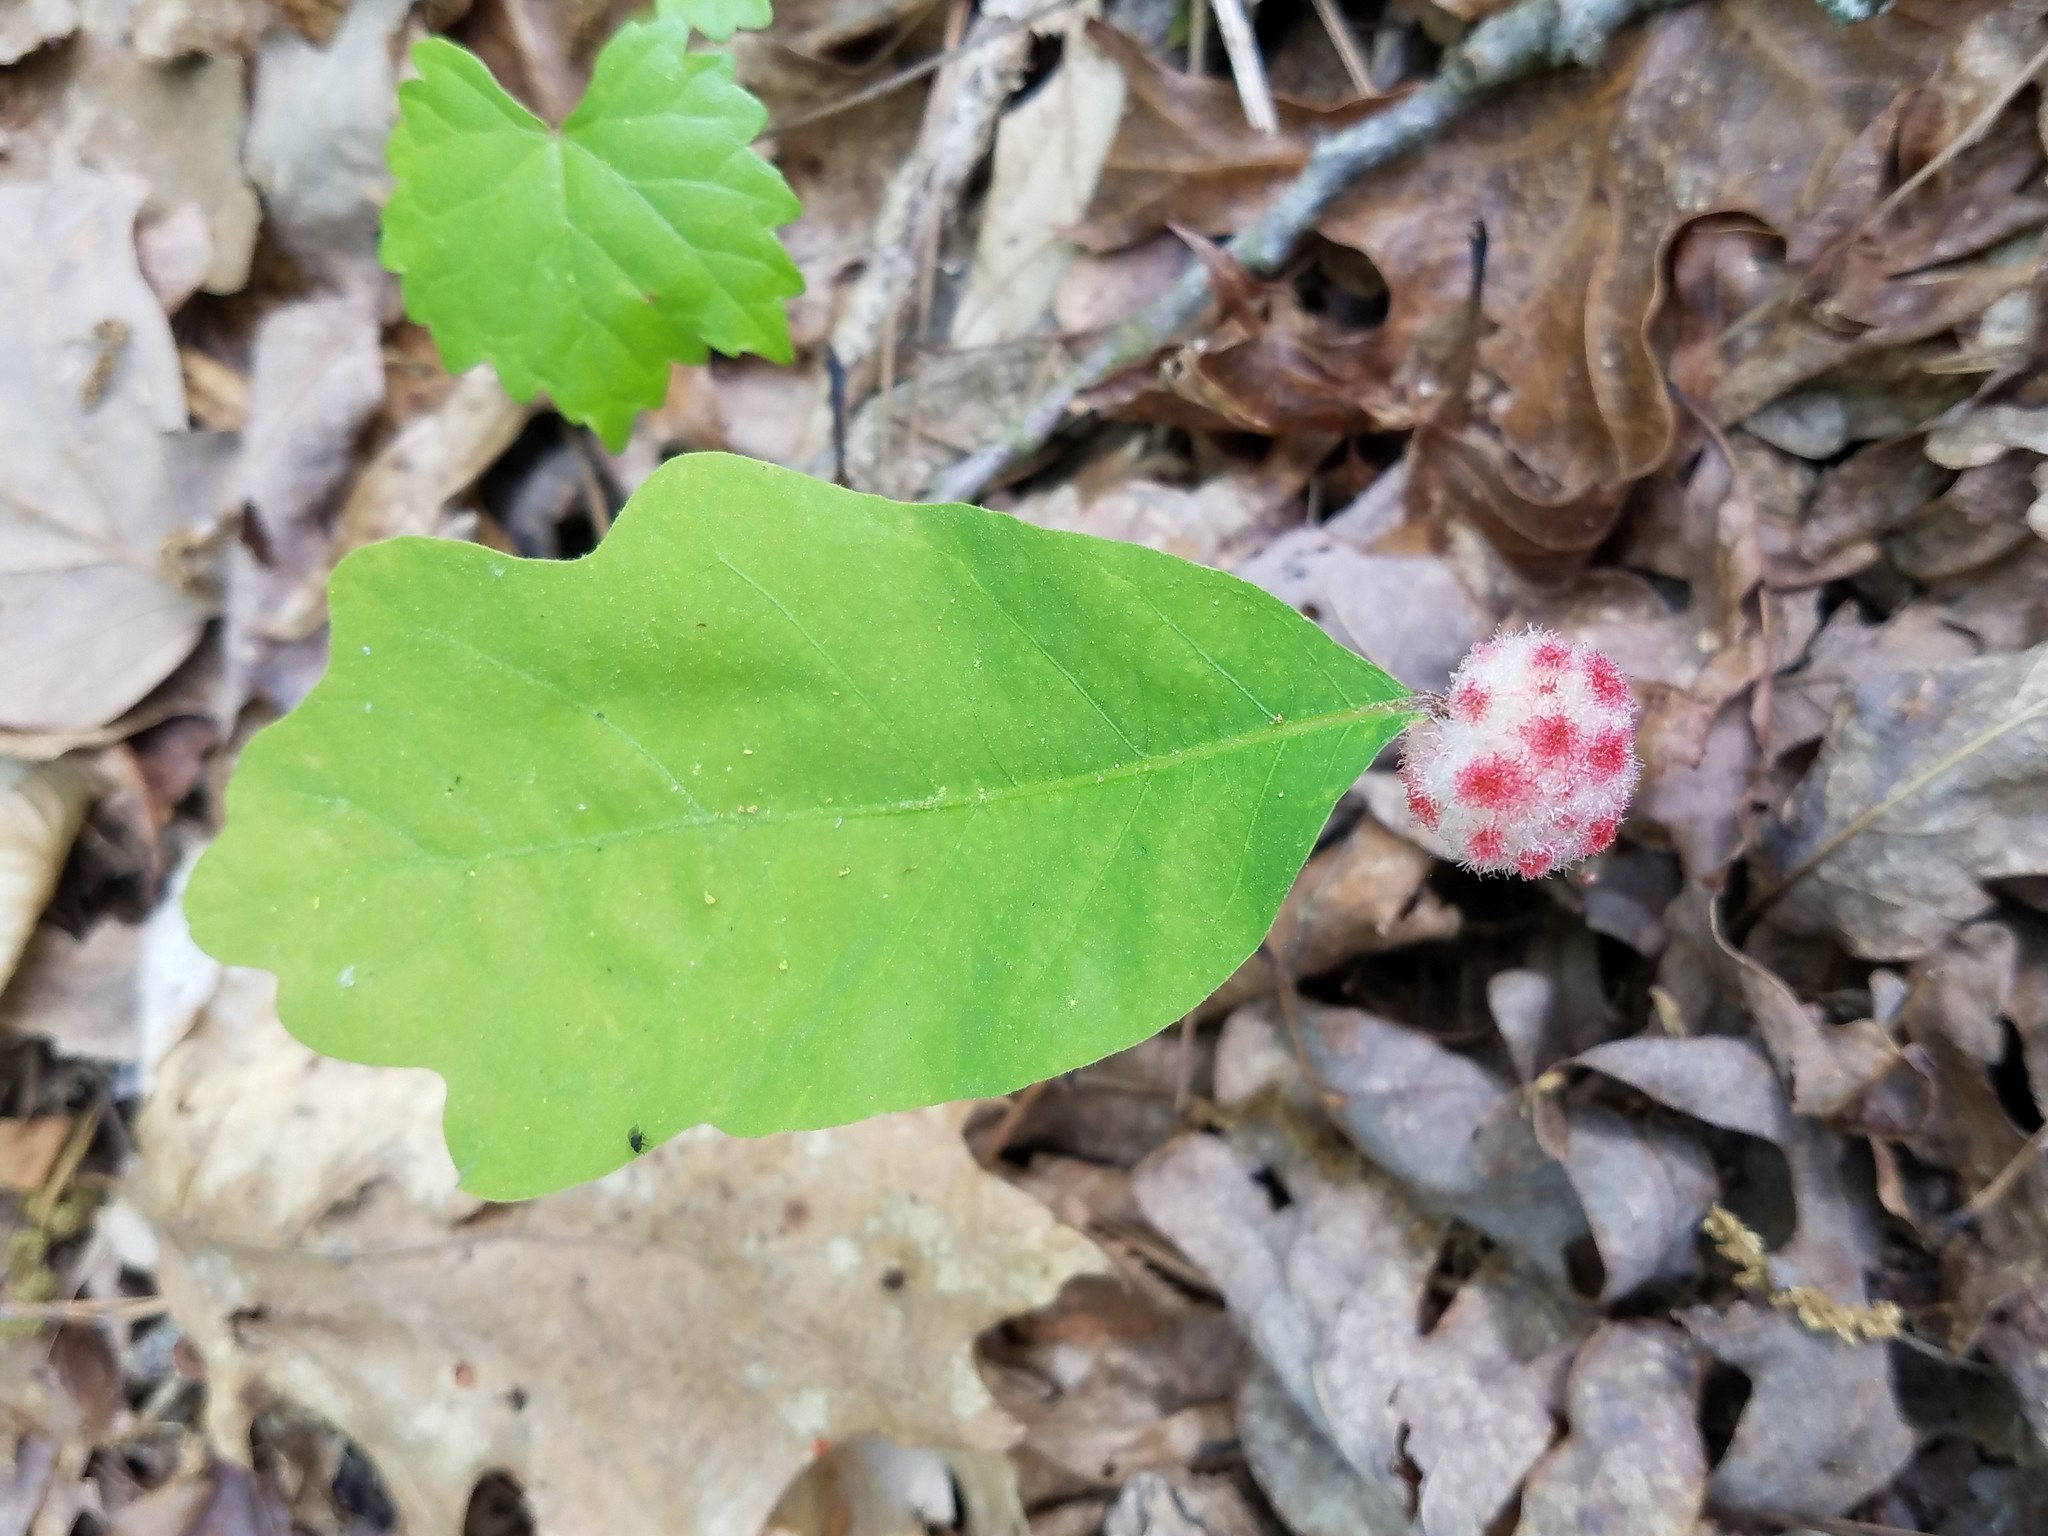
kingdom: Animalia
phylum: Arthropoda
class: Insecta
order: Hymenoptera
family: Cynipidae
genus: Callirhytis
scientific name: Callirhytis
